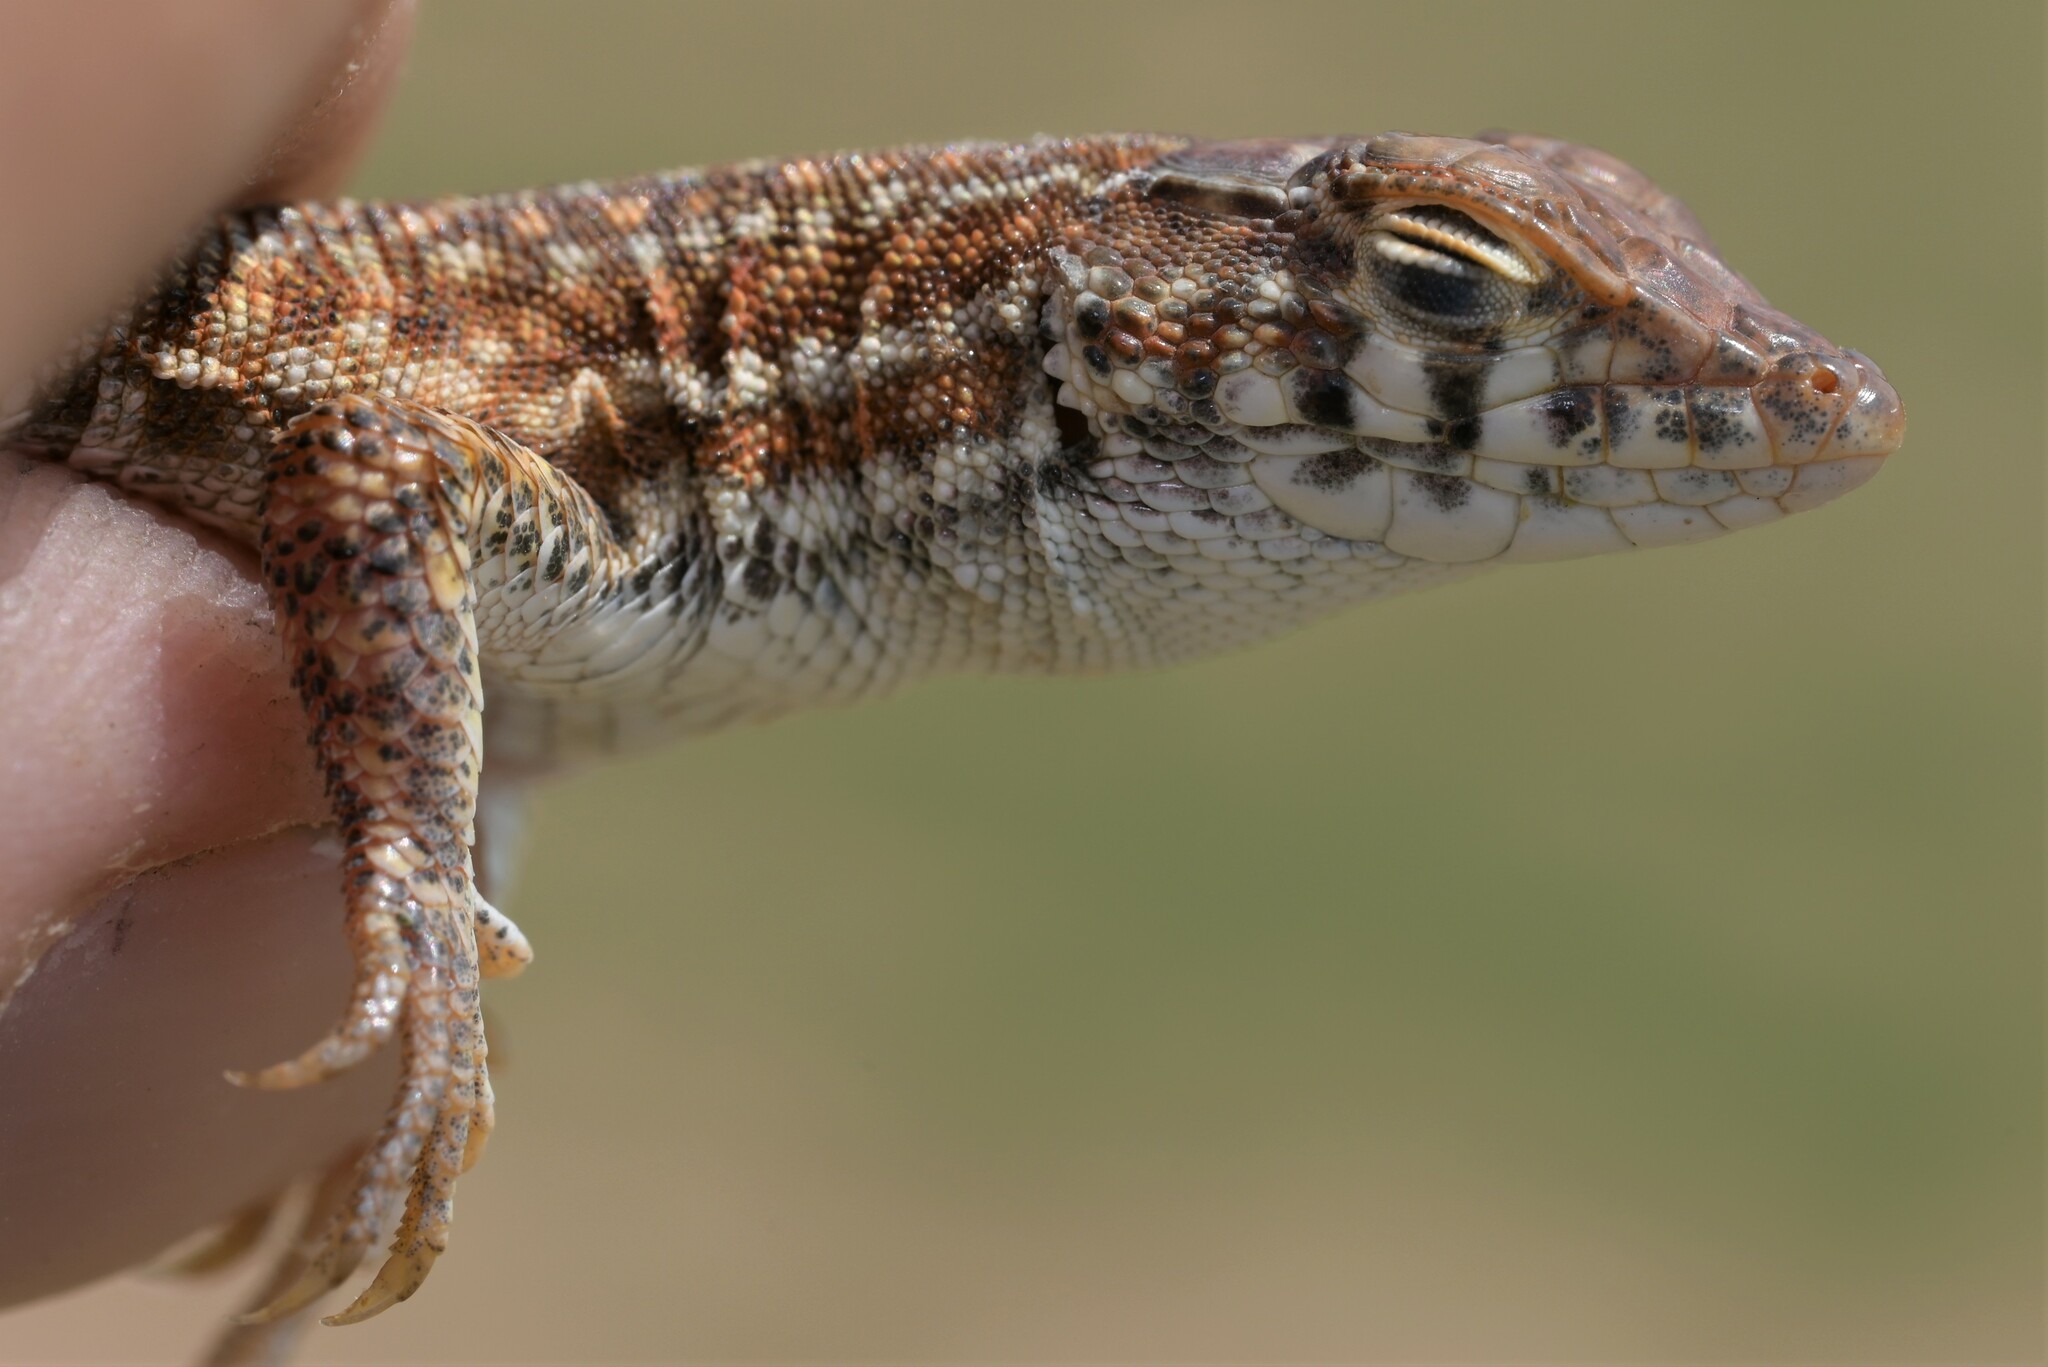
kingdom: Animalia
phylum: Chordata
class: Squamata
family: Lacertidae
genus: Acanthodactylus
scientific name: Acanthodactylus opheodurus
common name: Arnold's fringe-fingered lizard
